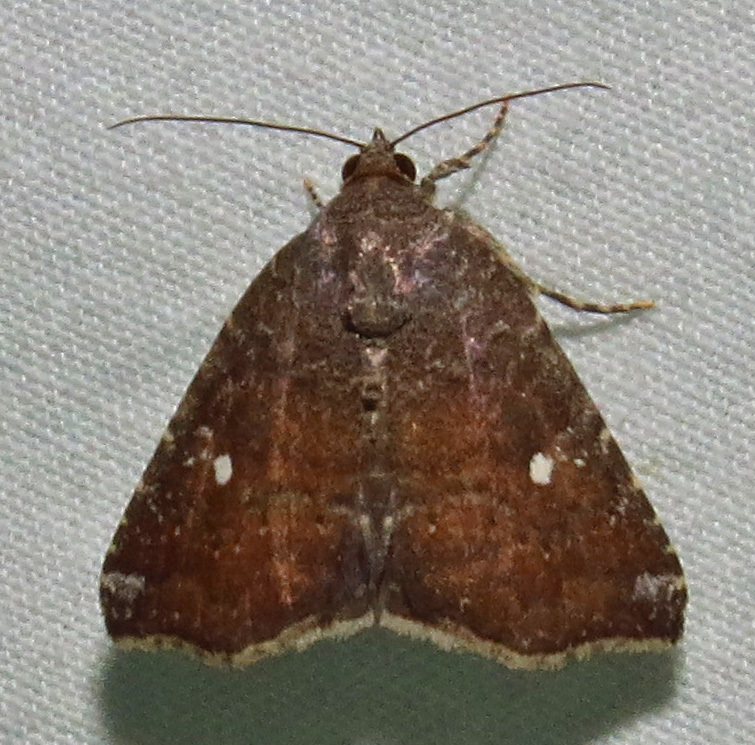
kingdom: Animalia
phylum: Arthropoda
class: Insecta
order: Lepidoptera
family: Noctuidae
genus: Amyna
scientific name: Amyna bullula
